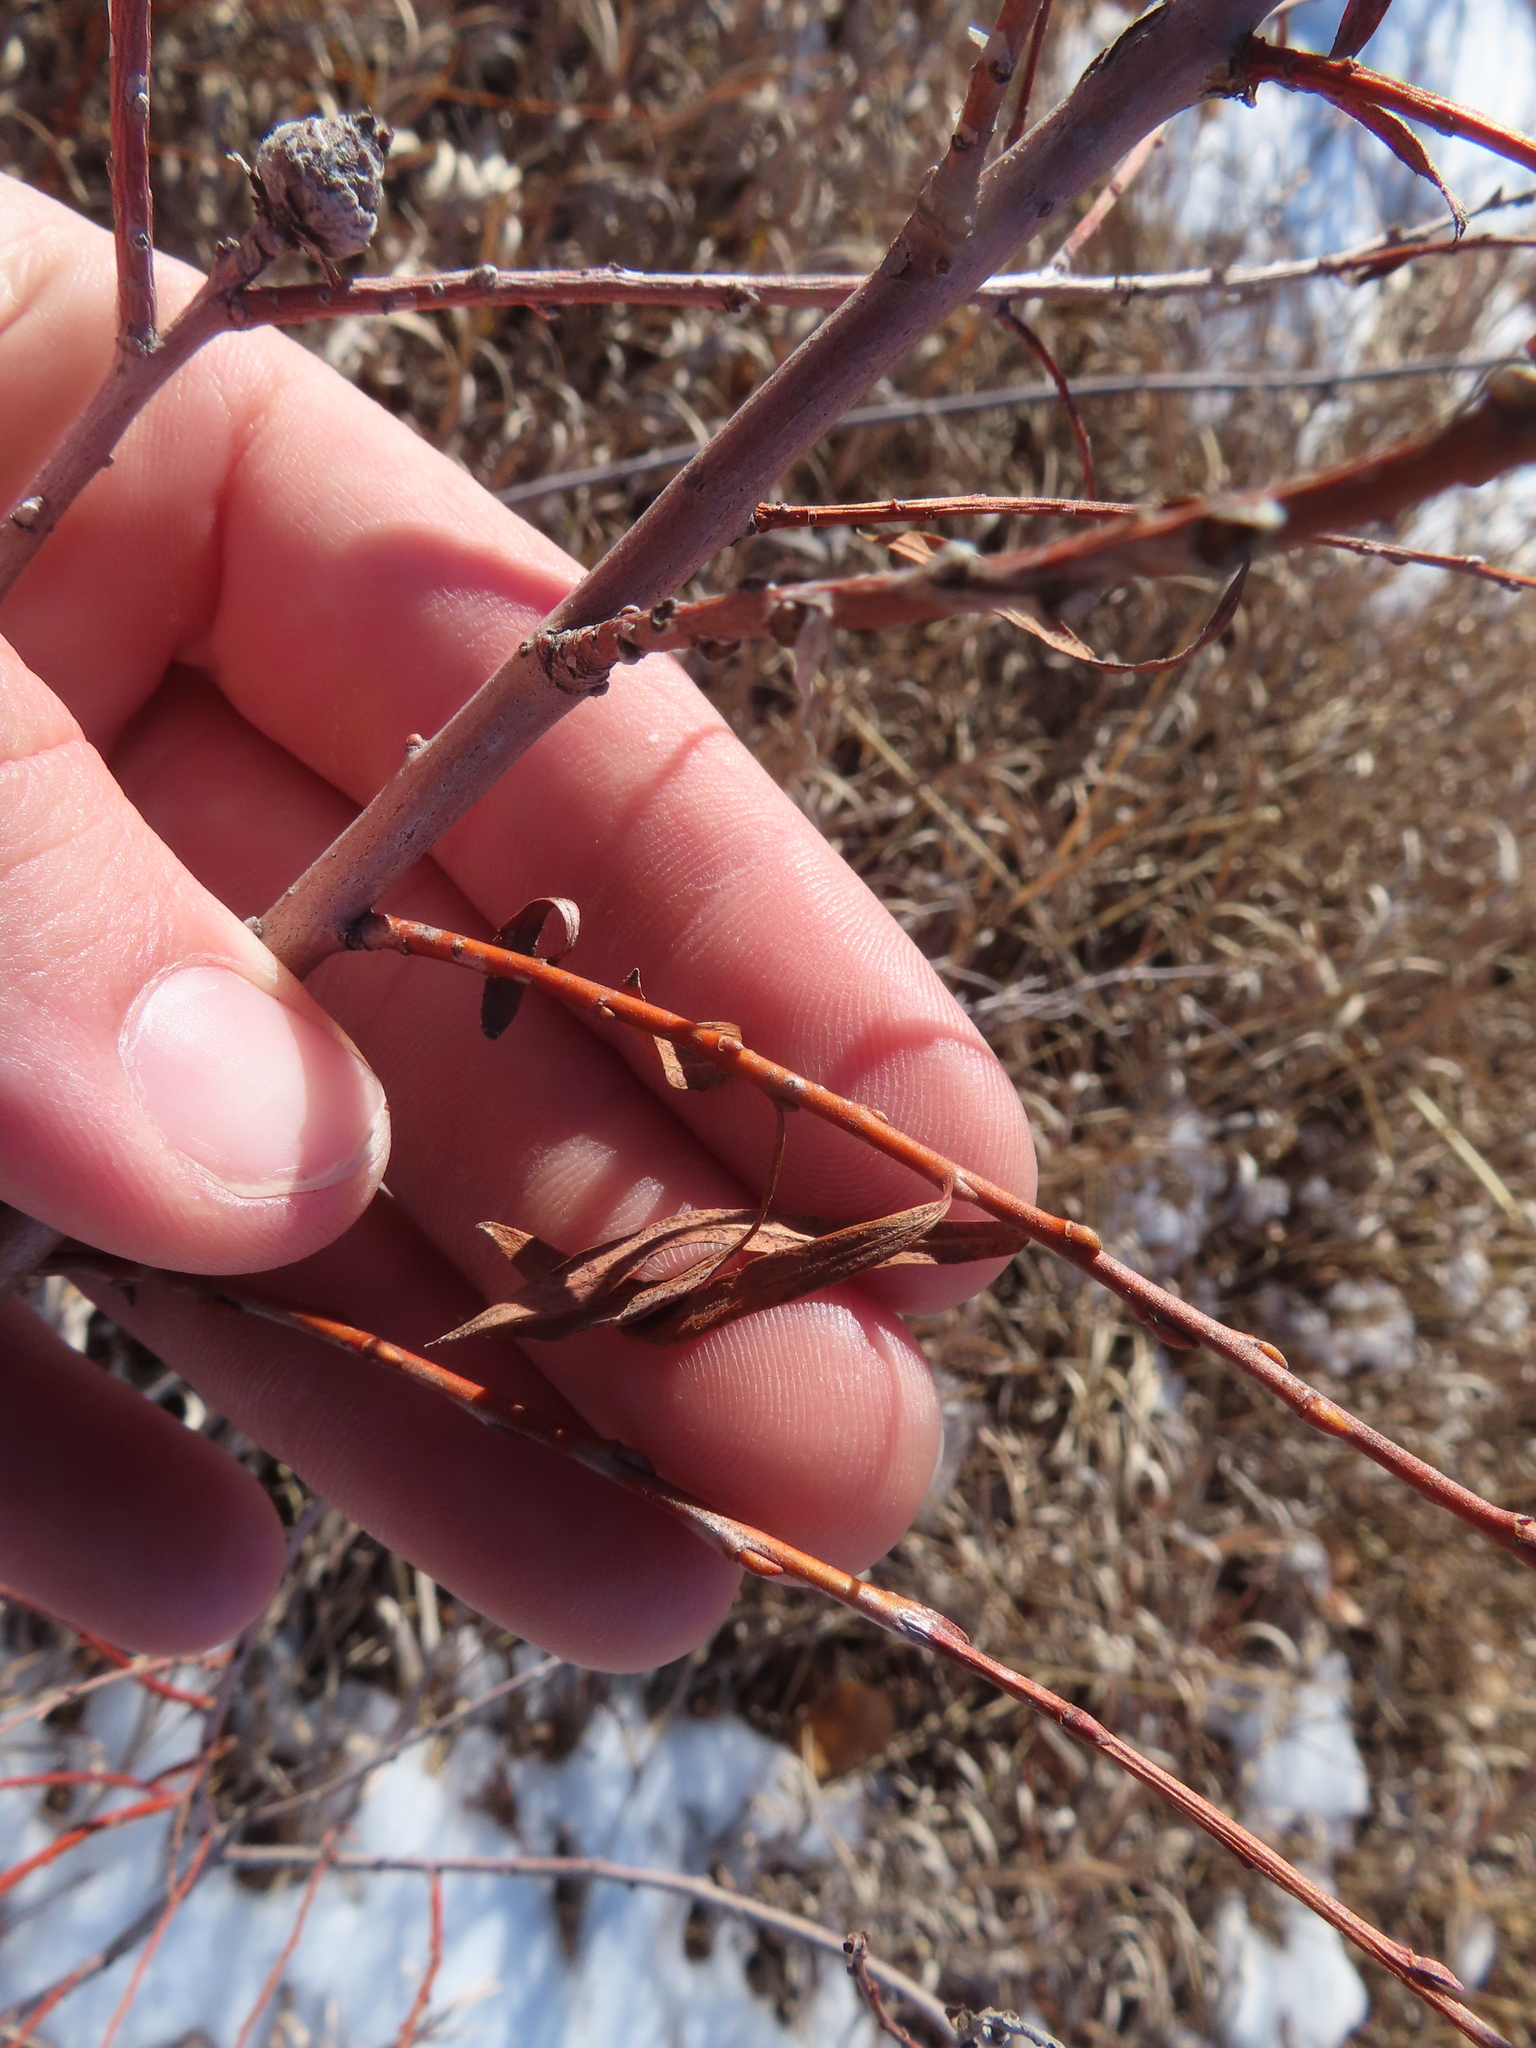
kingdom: Animalia
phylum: Arthropoda
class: Insecta
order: Diptera
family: Cecidomyiidae
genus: Rabdophaga
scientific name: Rabdophaga strobiloides
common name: Willow pinecone gall midge
